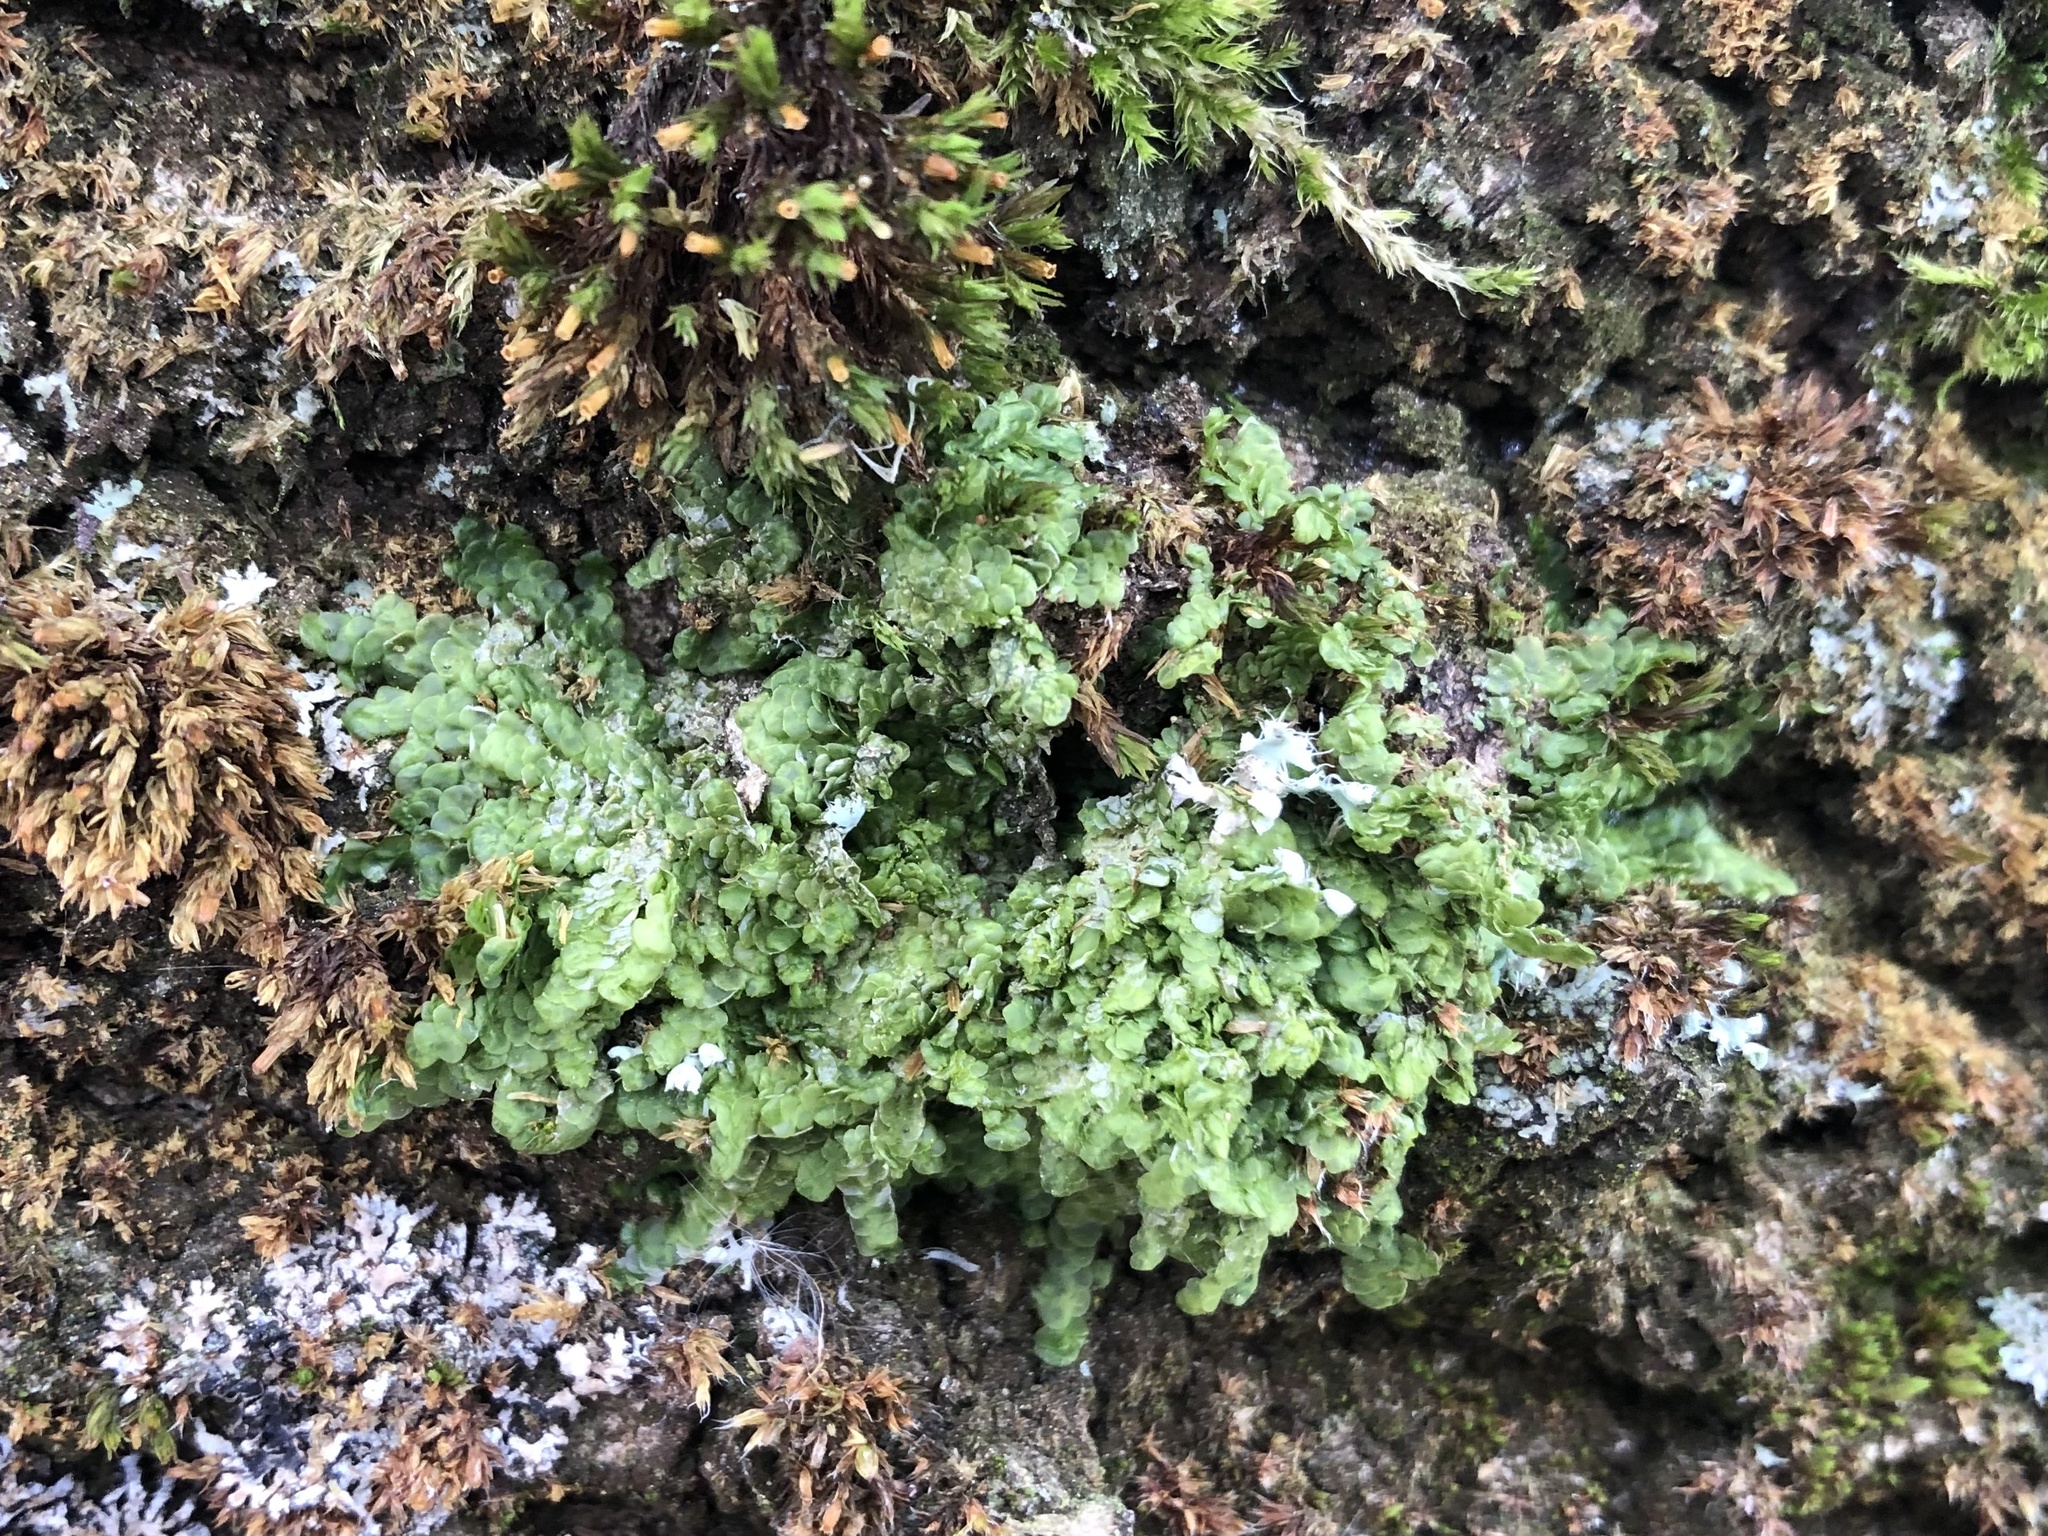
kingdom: Plantae
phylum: Marchantiophyta
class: Jungermanniopsida
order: Porellales
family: Radulaceae
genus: Radula
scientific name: Radula complanata
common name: Flat-leaved scalewort
